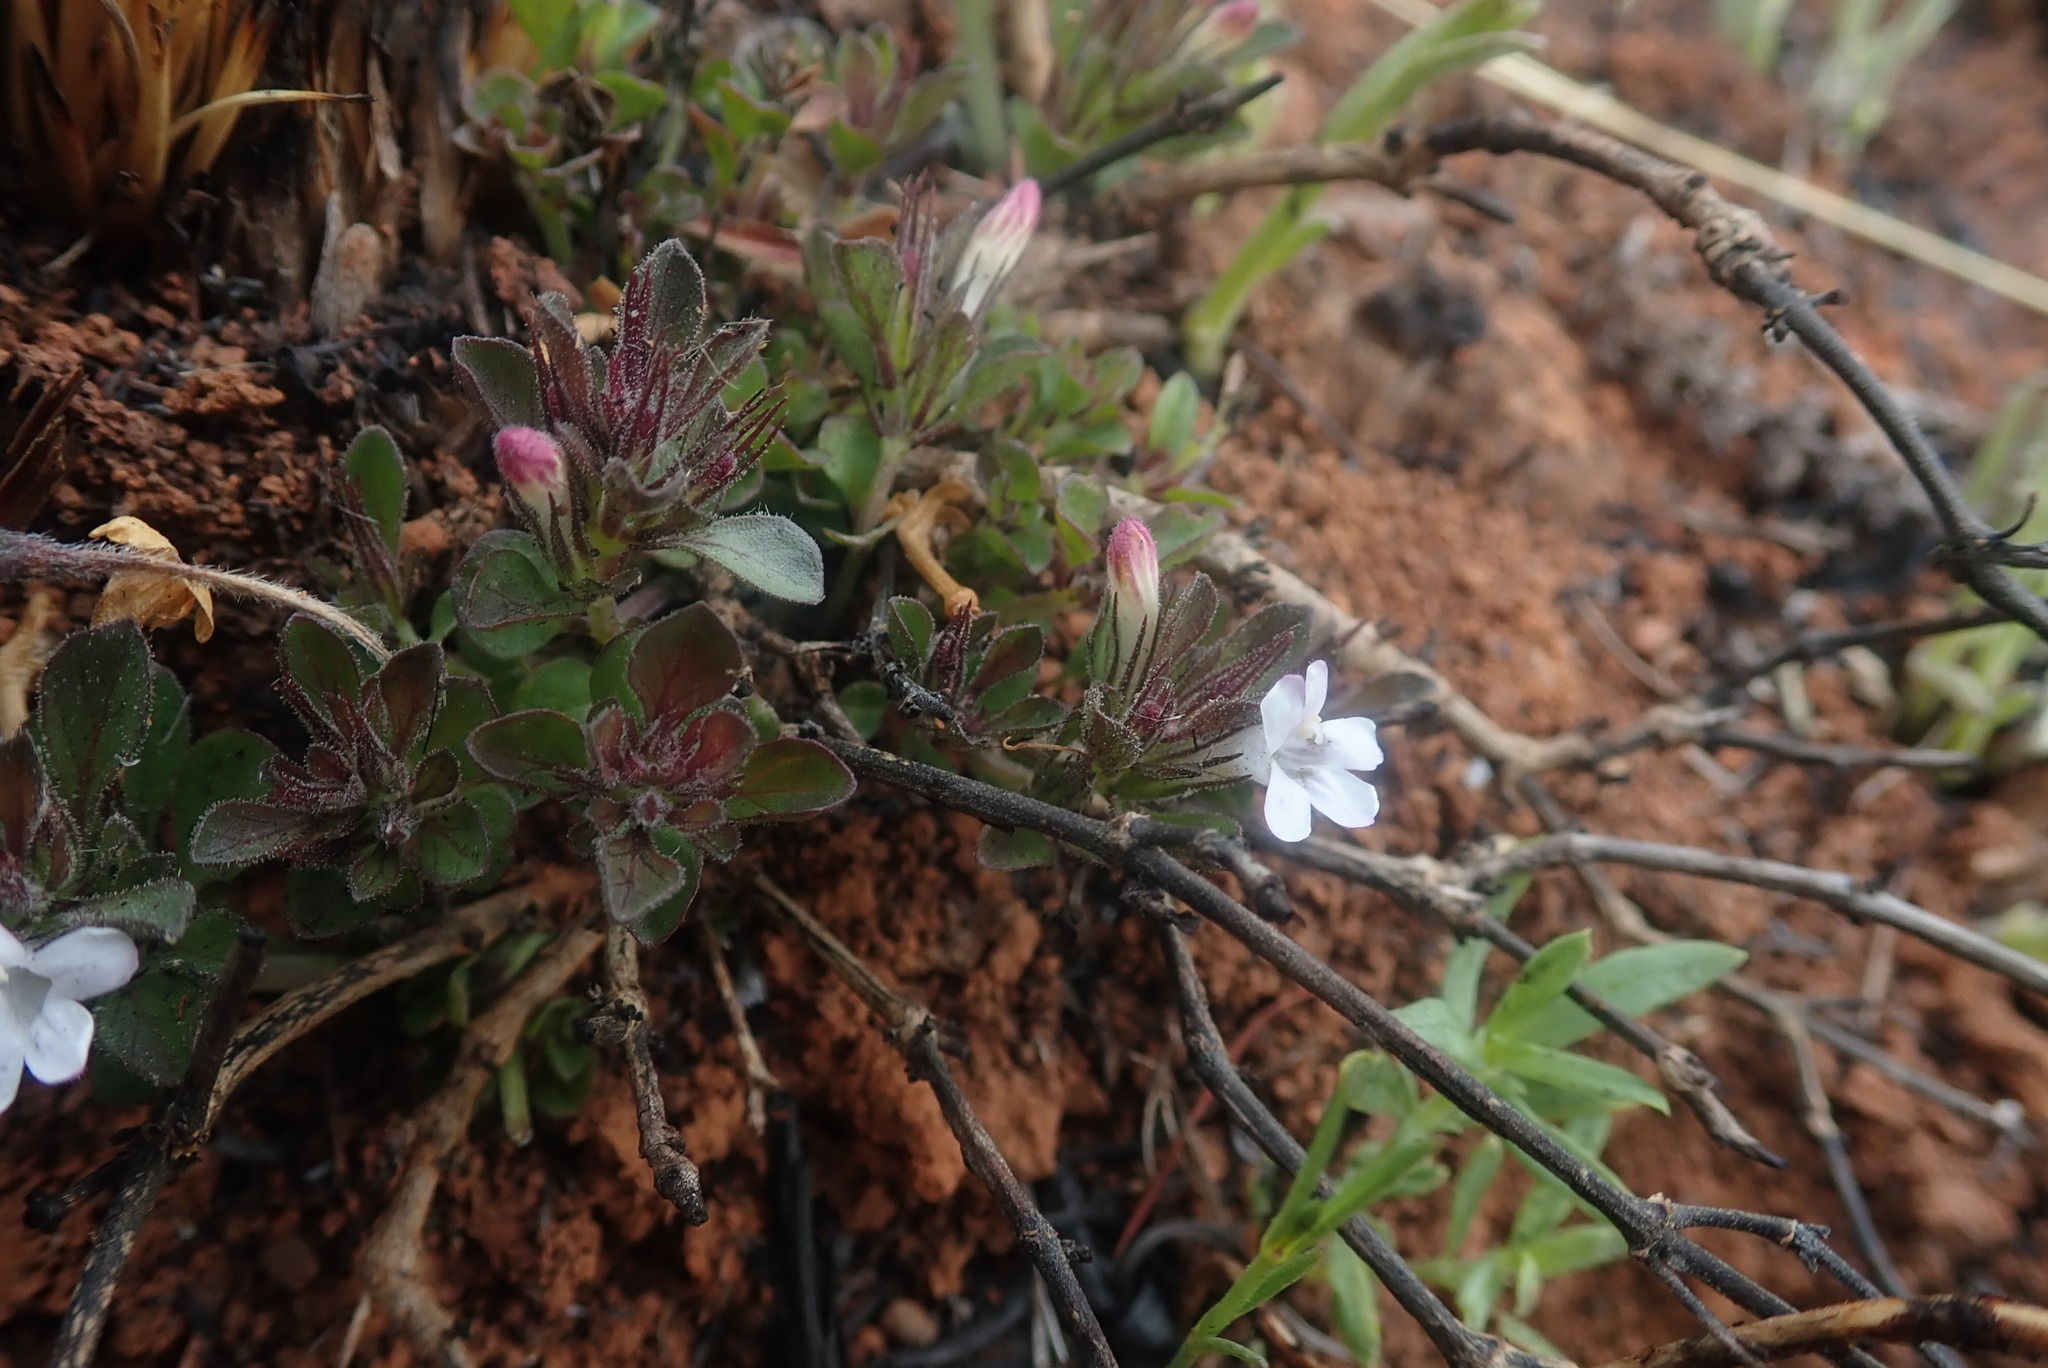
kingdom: Plantae
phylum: Tracheophyta
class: Magnoliopsida
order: Lamiales
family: Acanthaceae
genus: Dyschoriste
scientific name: Dyschoriste setigera
